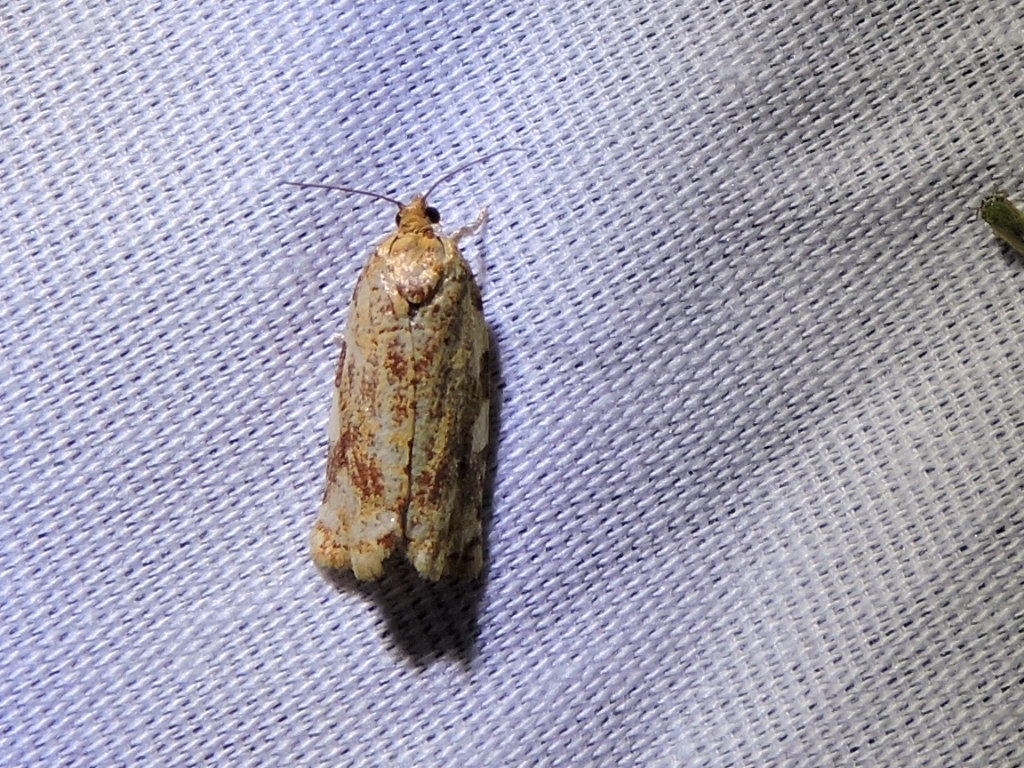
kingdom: Animalia
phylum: Arthropoda
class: Insecta
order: Lepidoptera
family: Tortricidae
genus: Archips
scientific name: Archips argyrospila
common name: Fruit-tree leafroller moth
